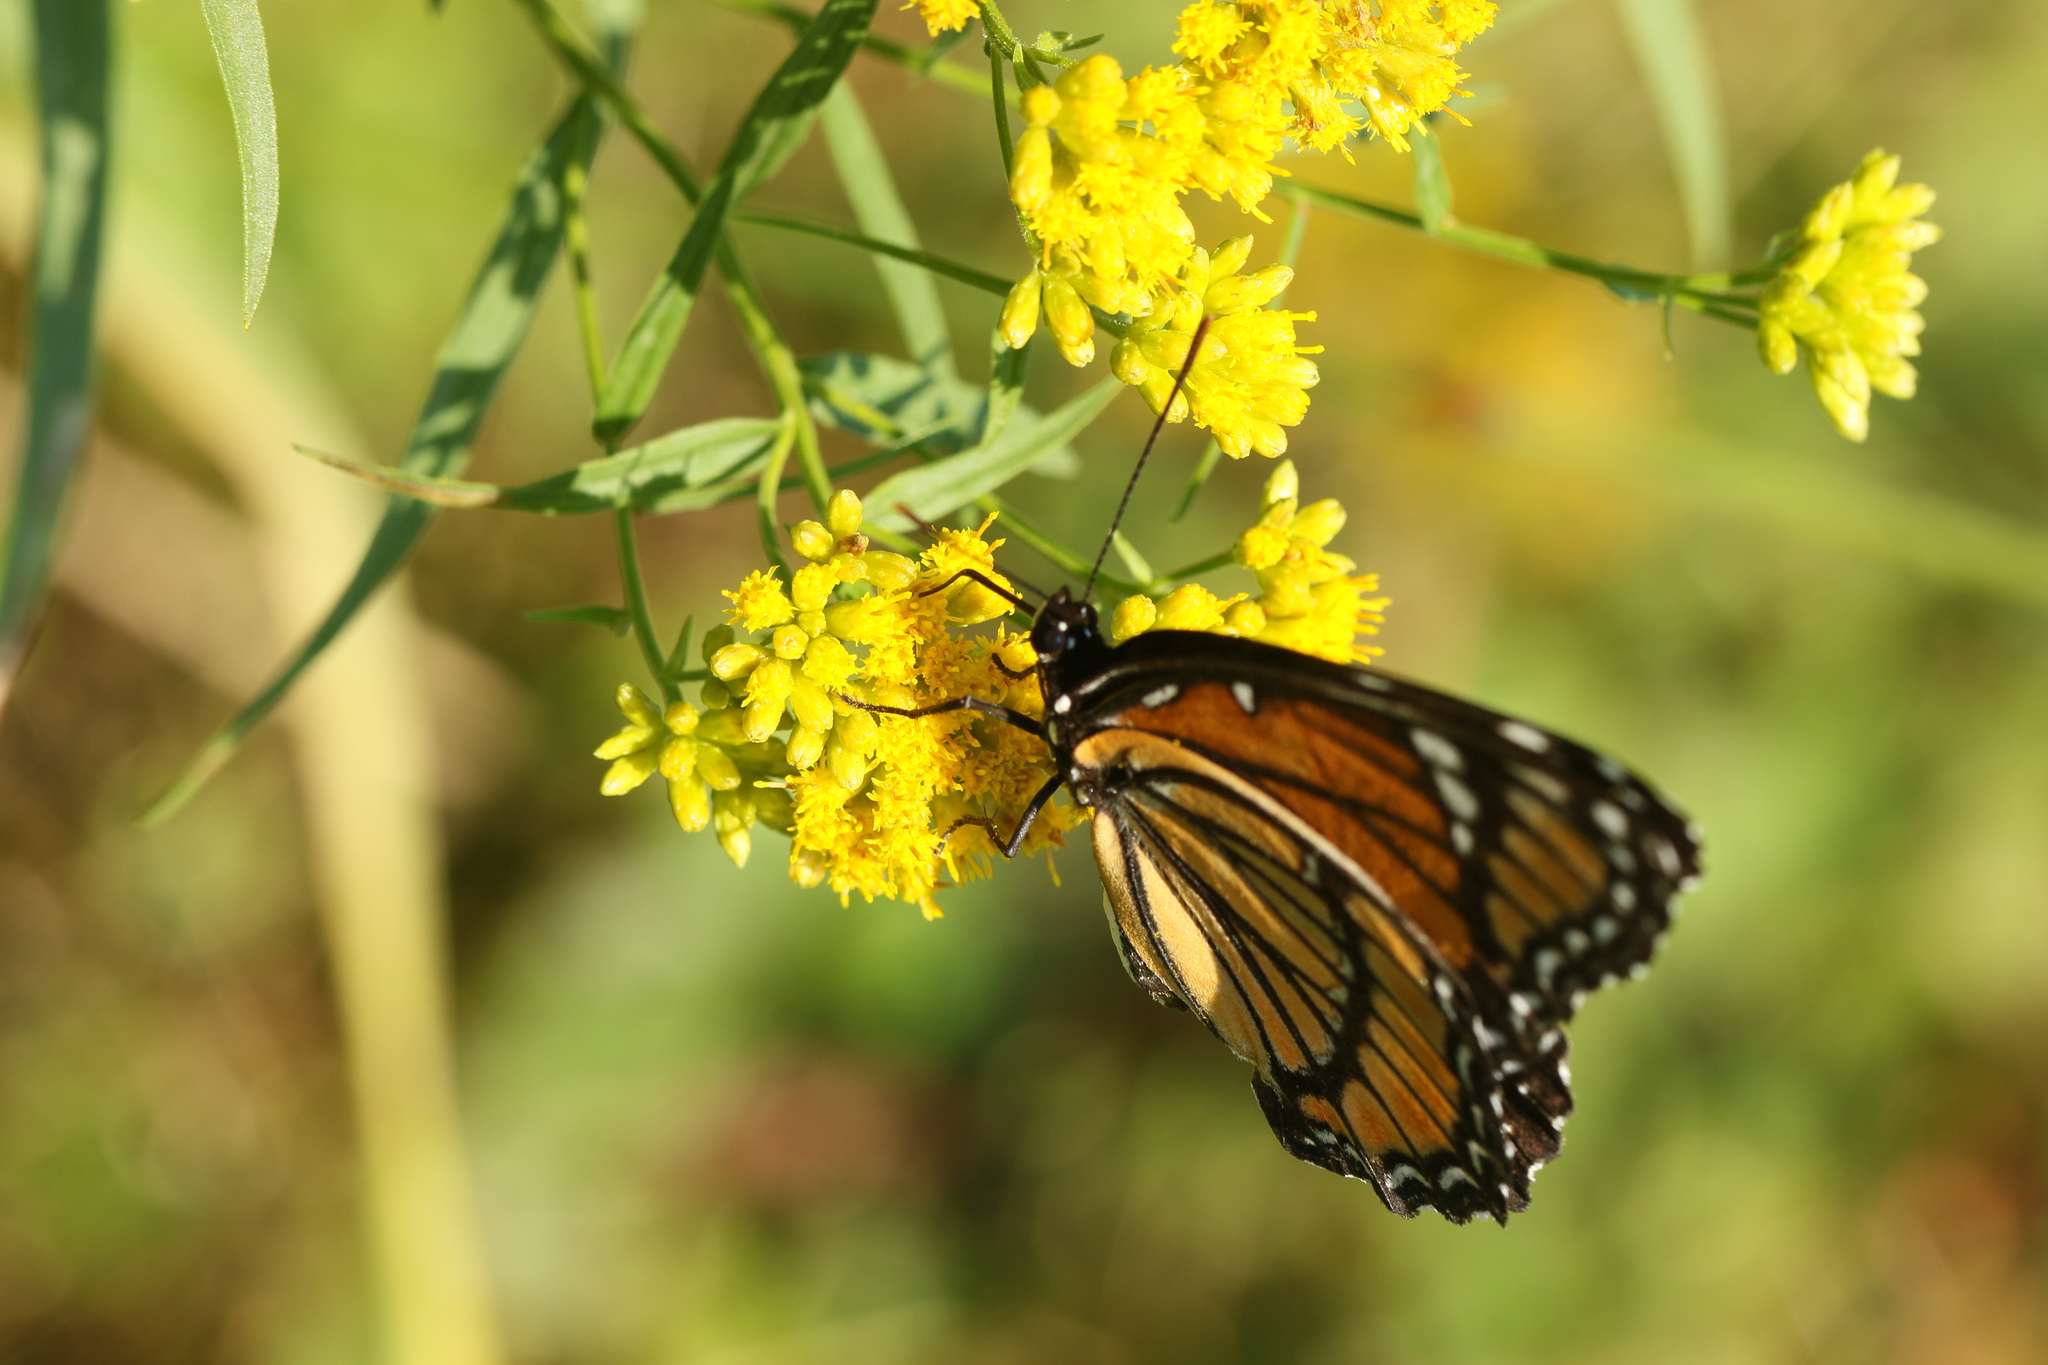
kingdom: Animalia
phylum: Arthropoda
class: Insecta
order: Lepidoptera
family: Nymphalidae
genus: Limenitis
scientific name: Limenitis archippus
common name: Viceroy
